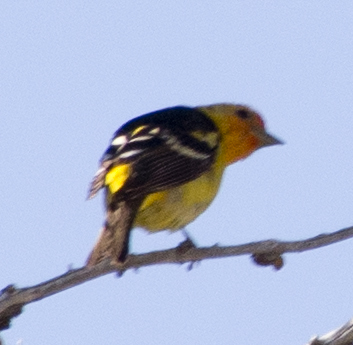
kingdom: Animalia
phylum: Chordata
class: Aves
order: Passeriformes
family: Cardinalidae
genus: Piranga
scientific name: Piranga ludoviciana
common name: Western tanager
